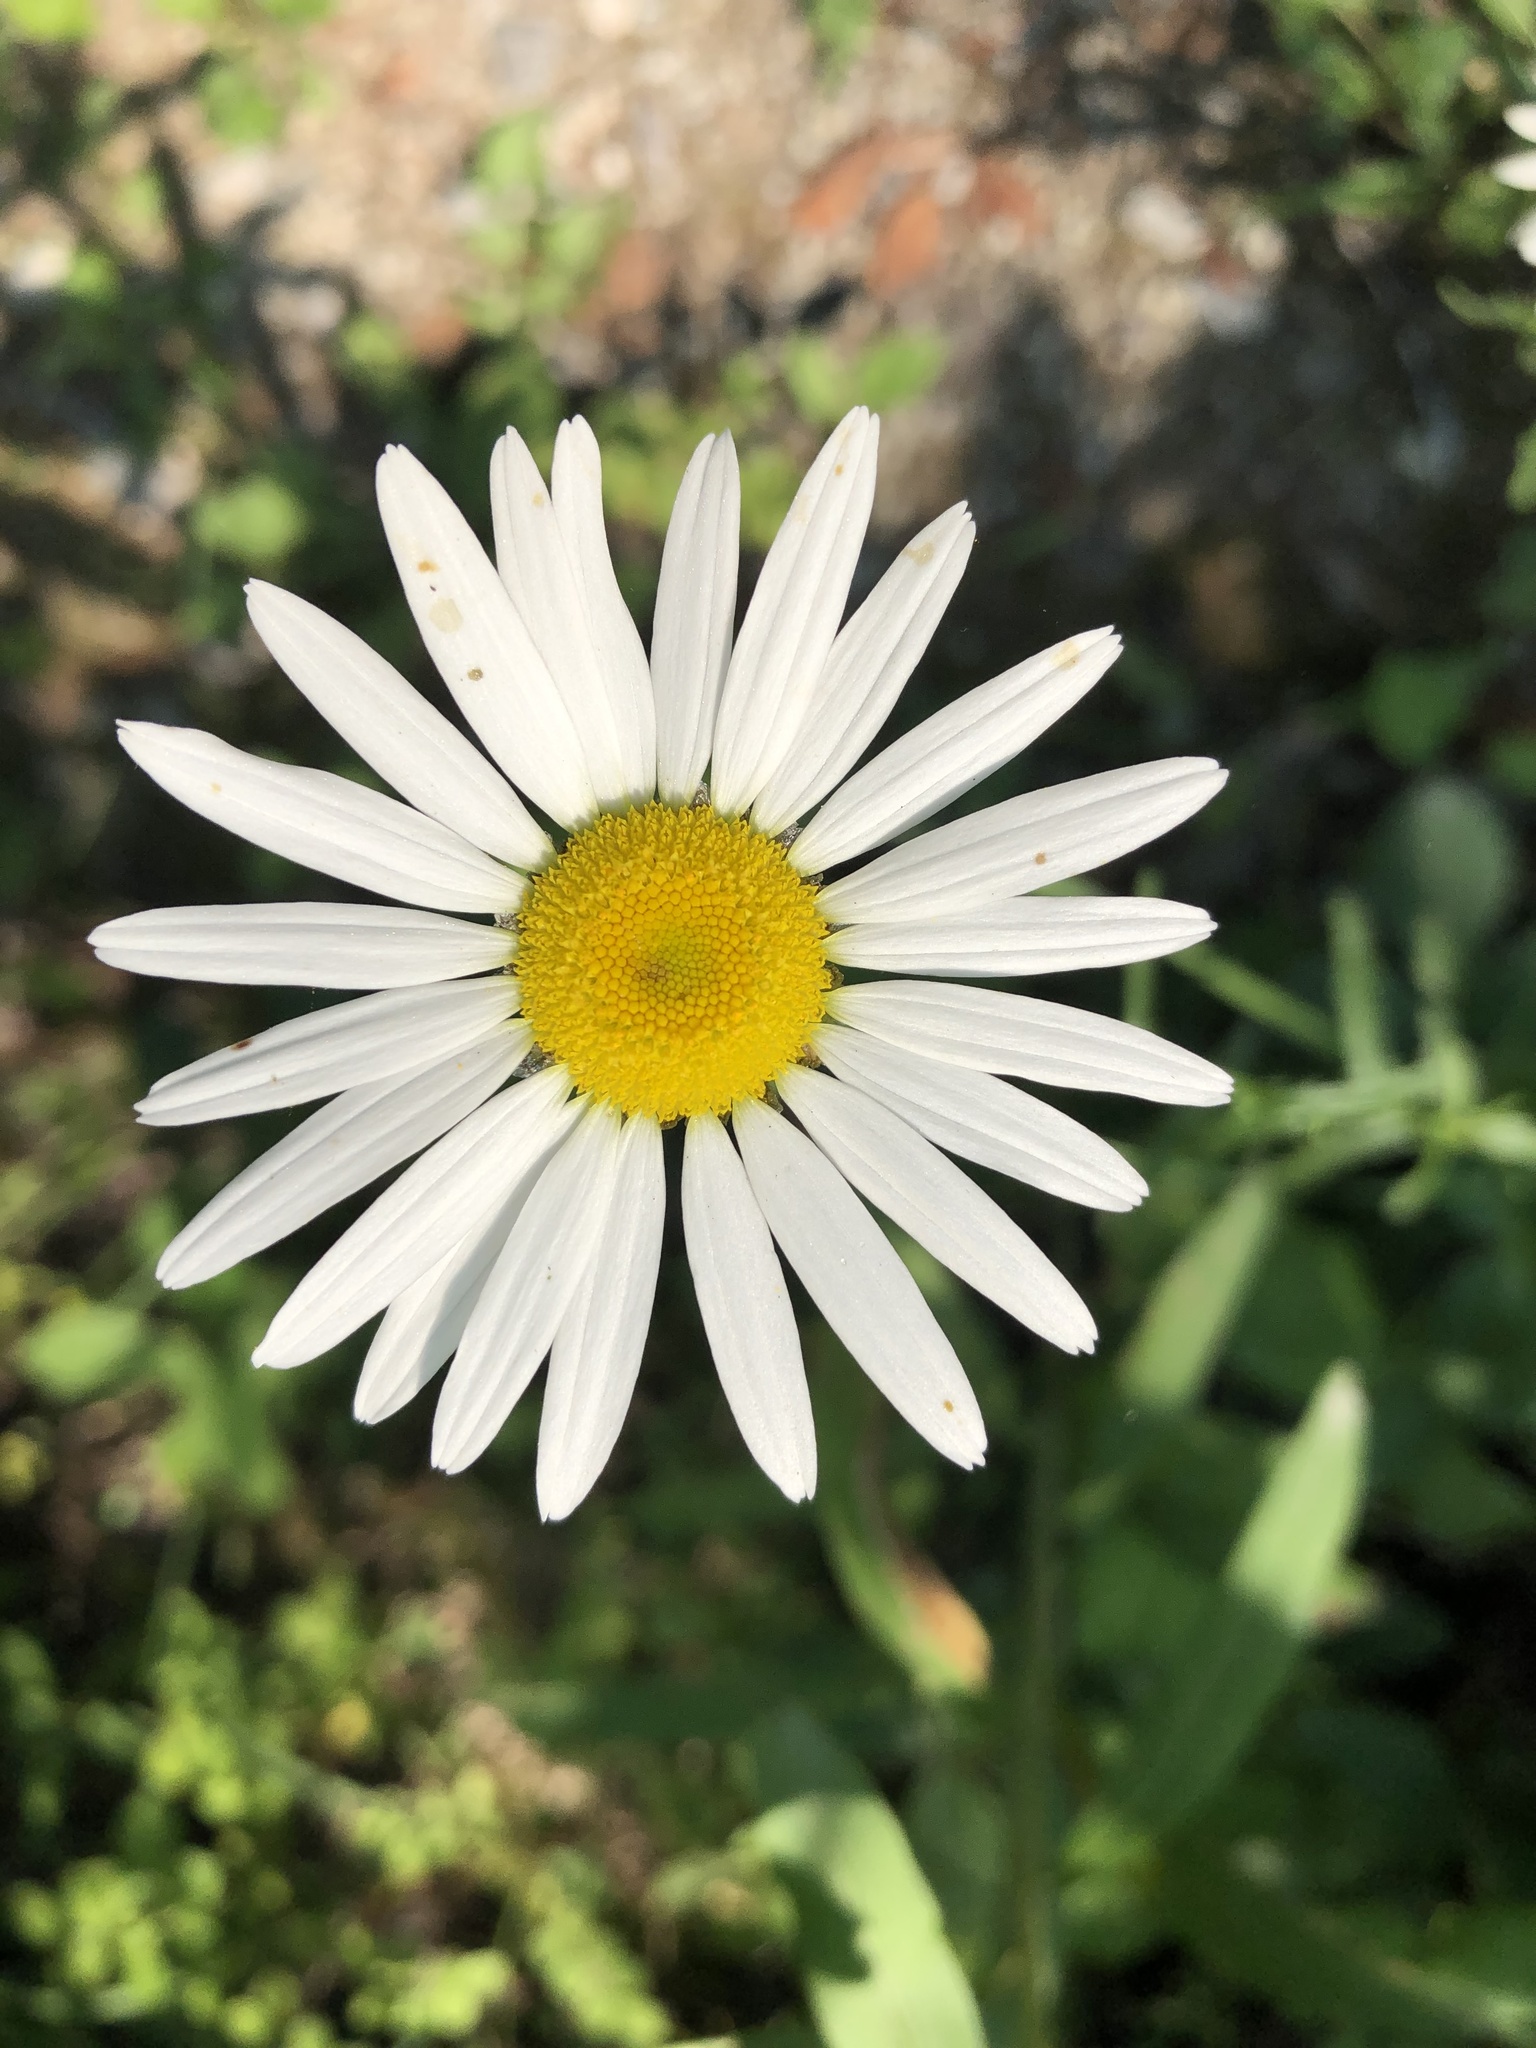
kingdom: Plantae
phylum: Tracheophyta
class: Magnoliopsida
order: Asterales
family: Asteraceae
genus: Leucanthemum
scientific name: Leucanthemum vulgare
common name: Oxeye daisy
